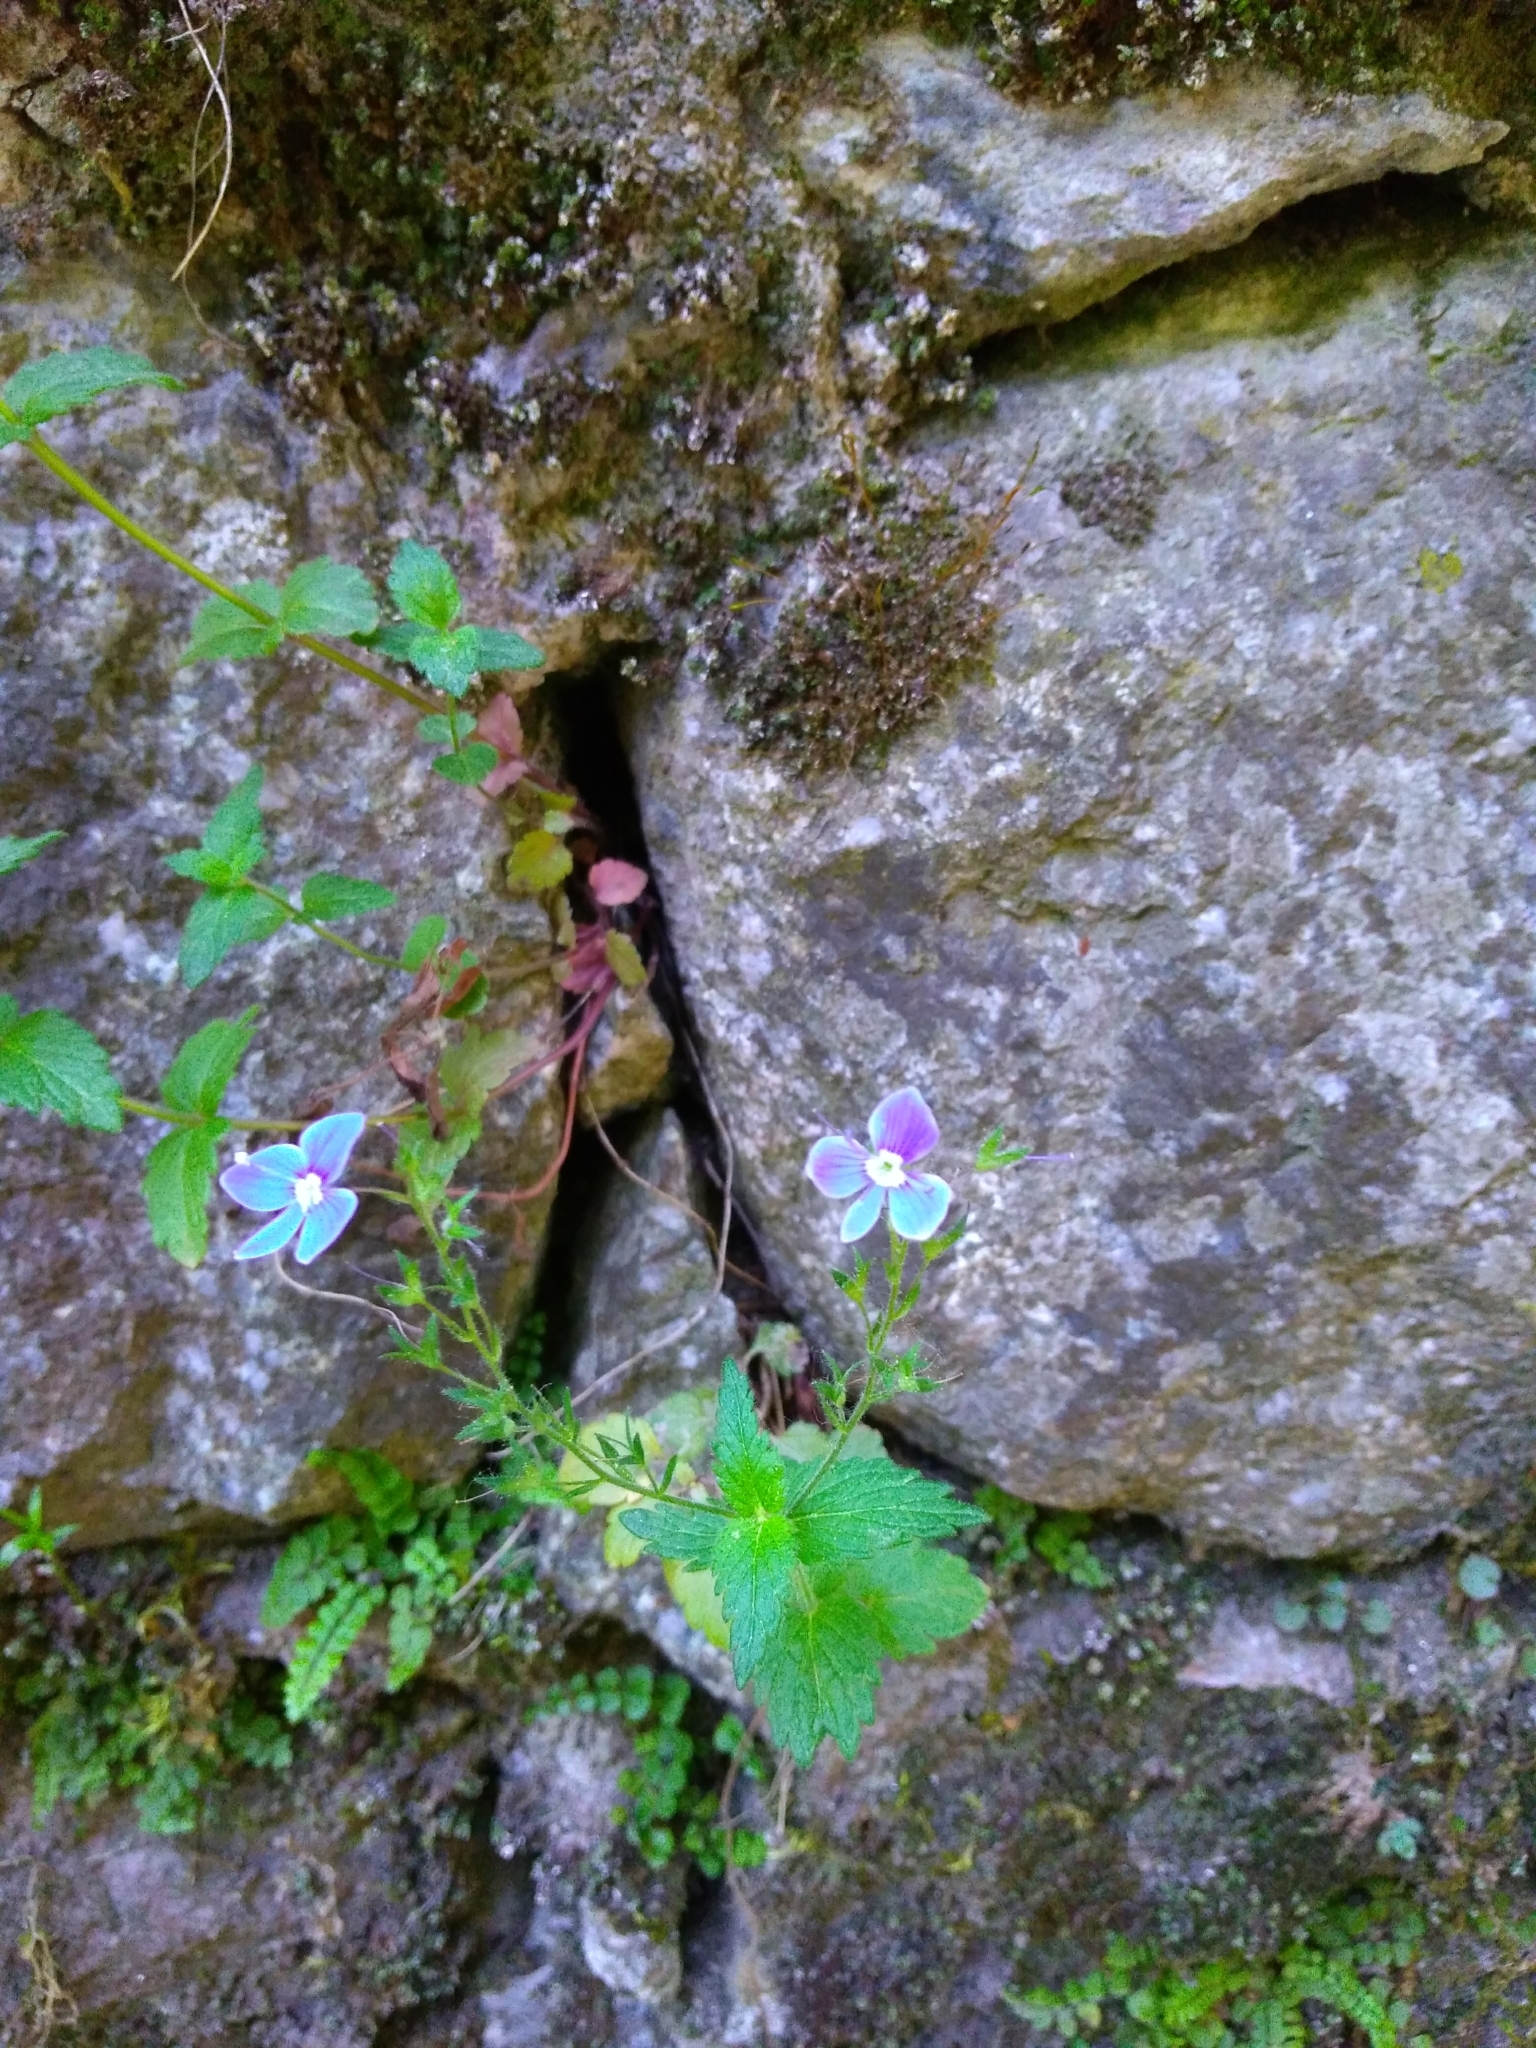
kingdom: Plantae
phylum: Tracheophyta
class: Magnoliopsida
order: Lamiales
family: Plantaginaceae
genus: Veronica
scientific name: Veronica chamaedrys
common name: Germander speedwell
